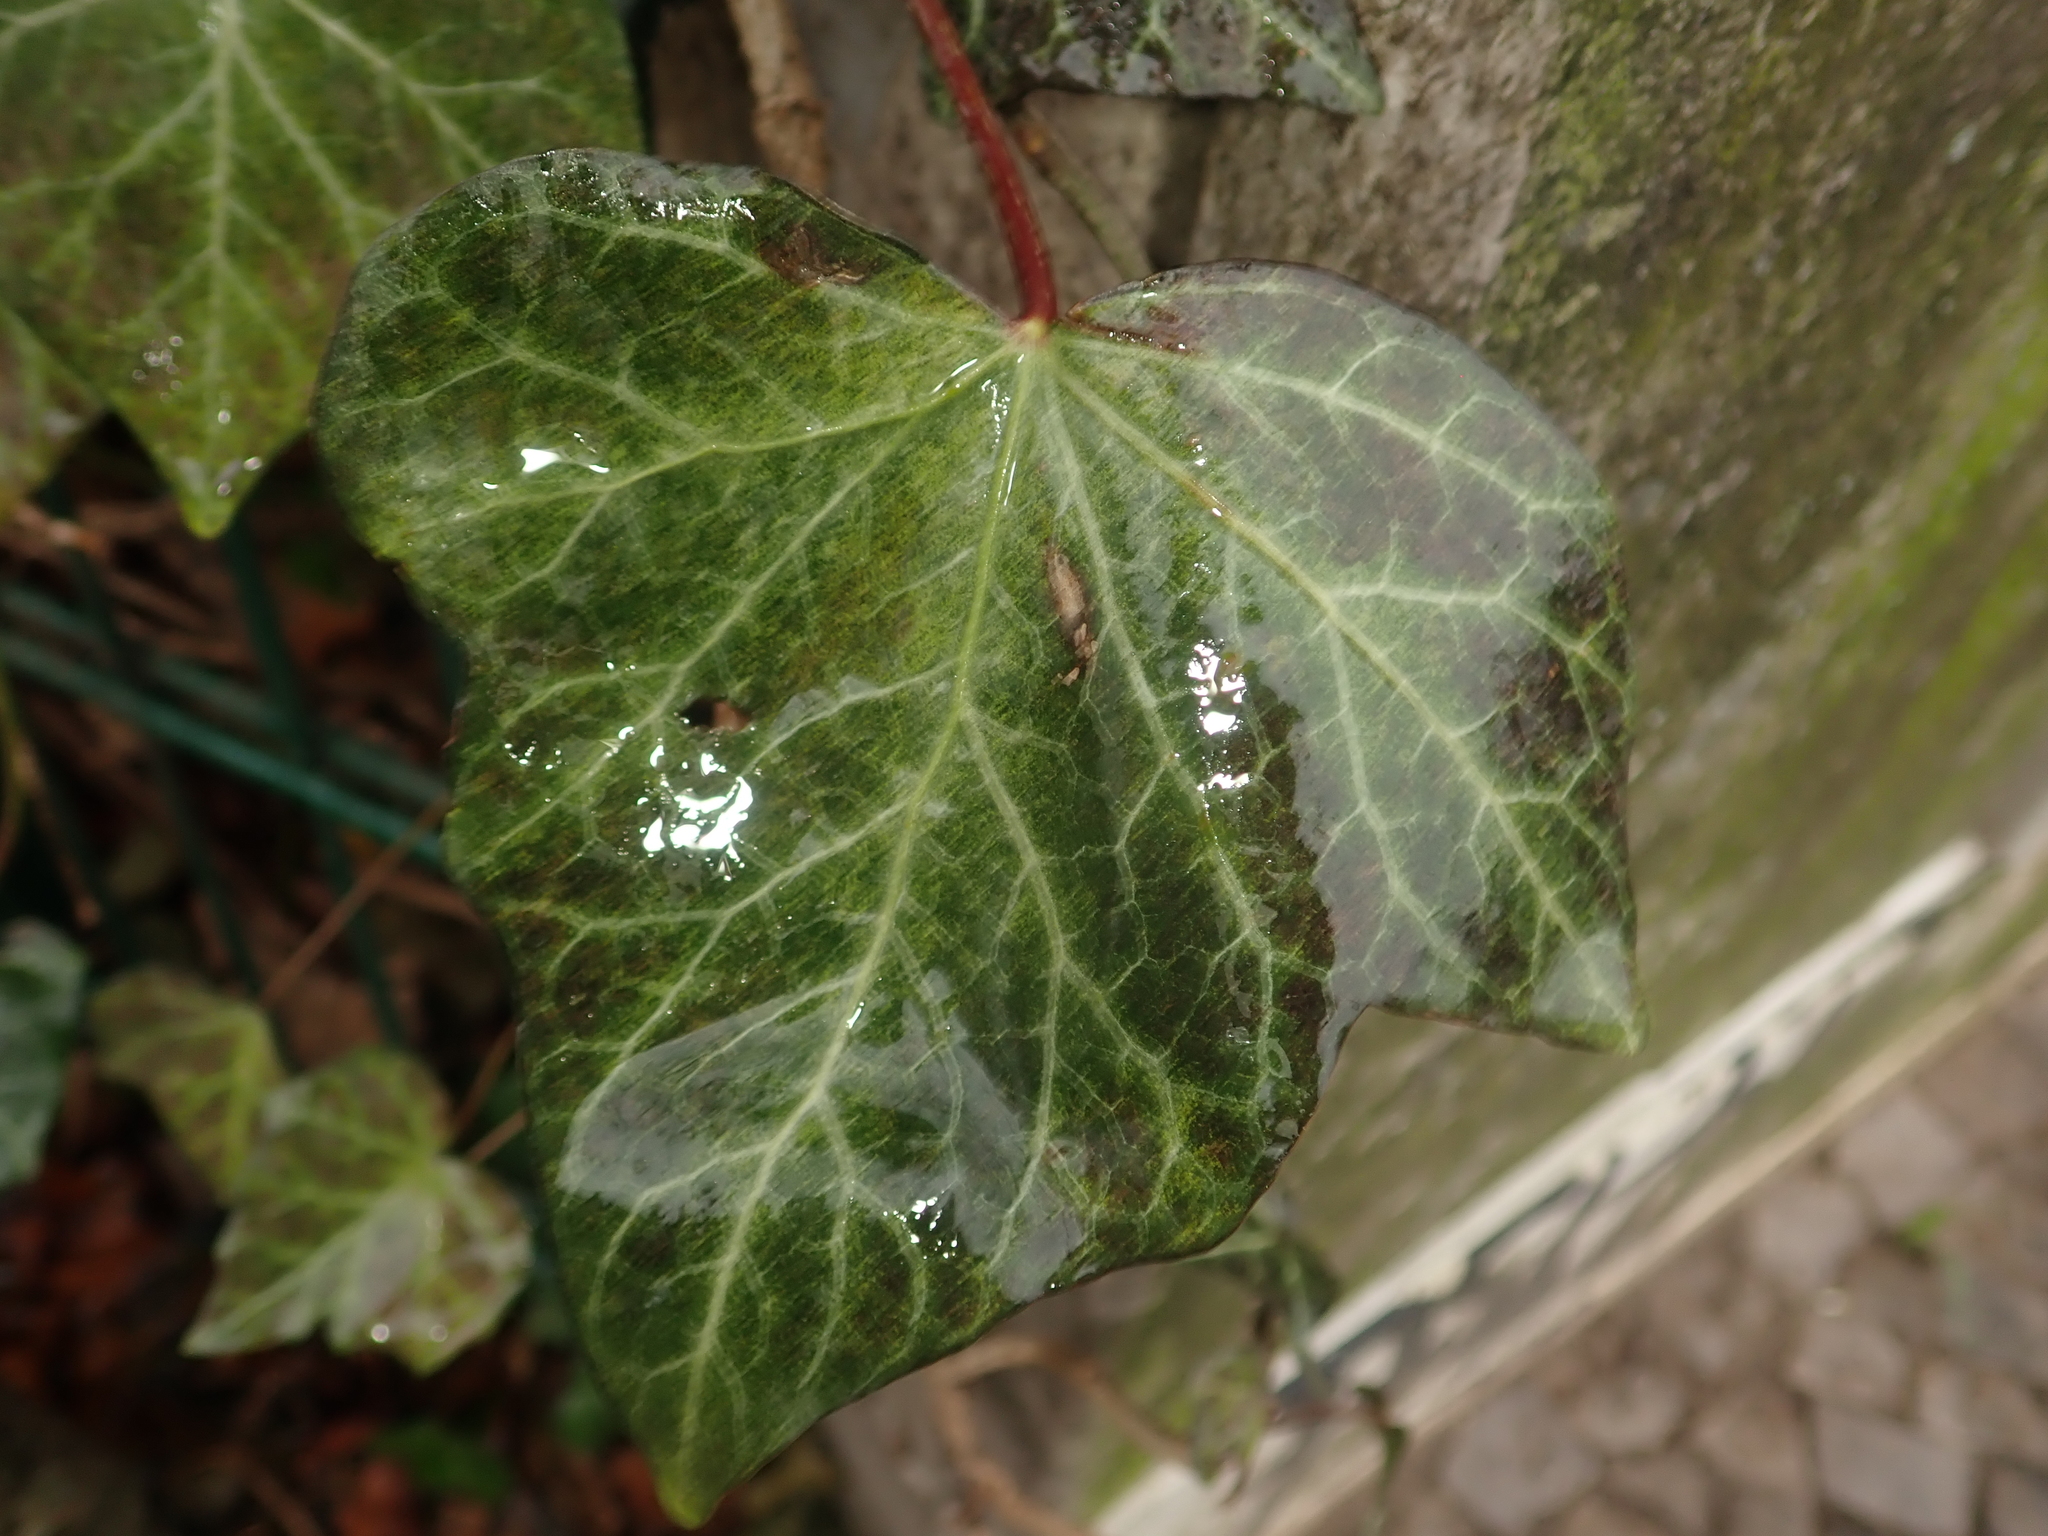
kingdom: Plantae
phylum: Tracheophyta
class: Magnoliopsida
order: Apiales
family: Araliaceae
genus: Hedera
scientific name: Hedera helix
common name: Ivy
